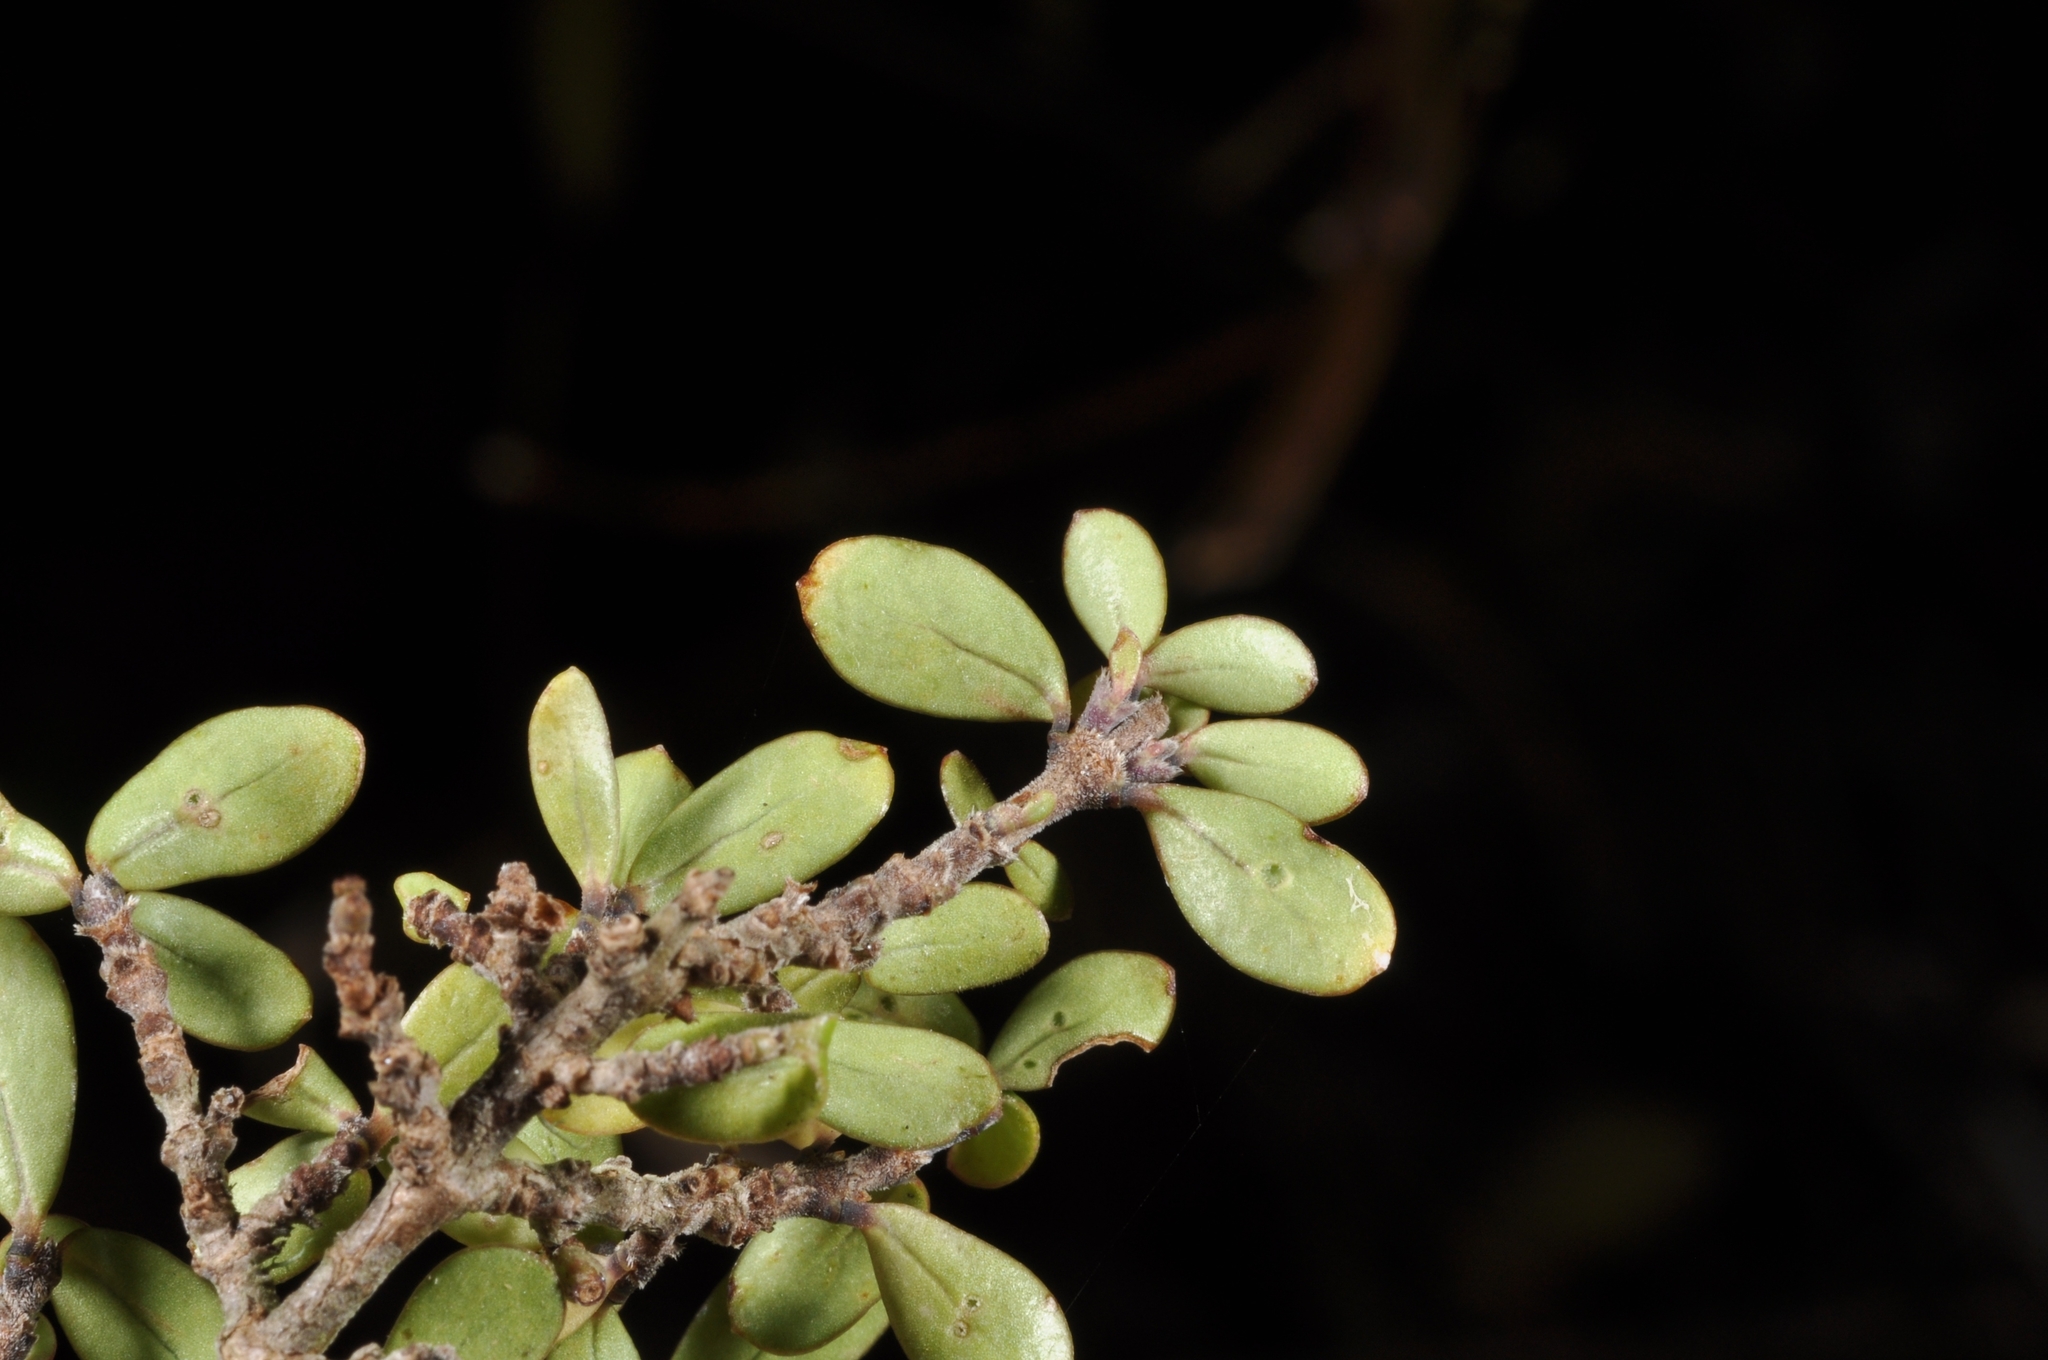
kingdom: Plantae
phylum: Tracheophyta
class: Magnoliopsida
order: Gentianales
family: Rubiaceae
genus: Coprosma
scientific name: Coprosma dumosa
